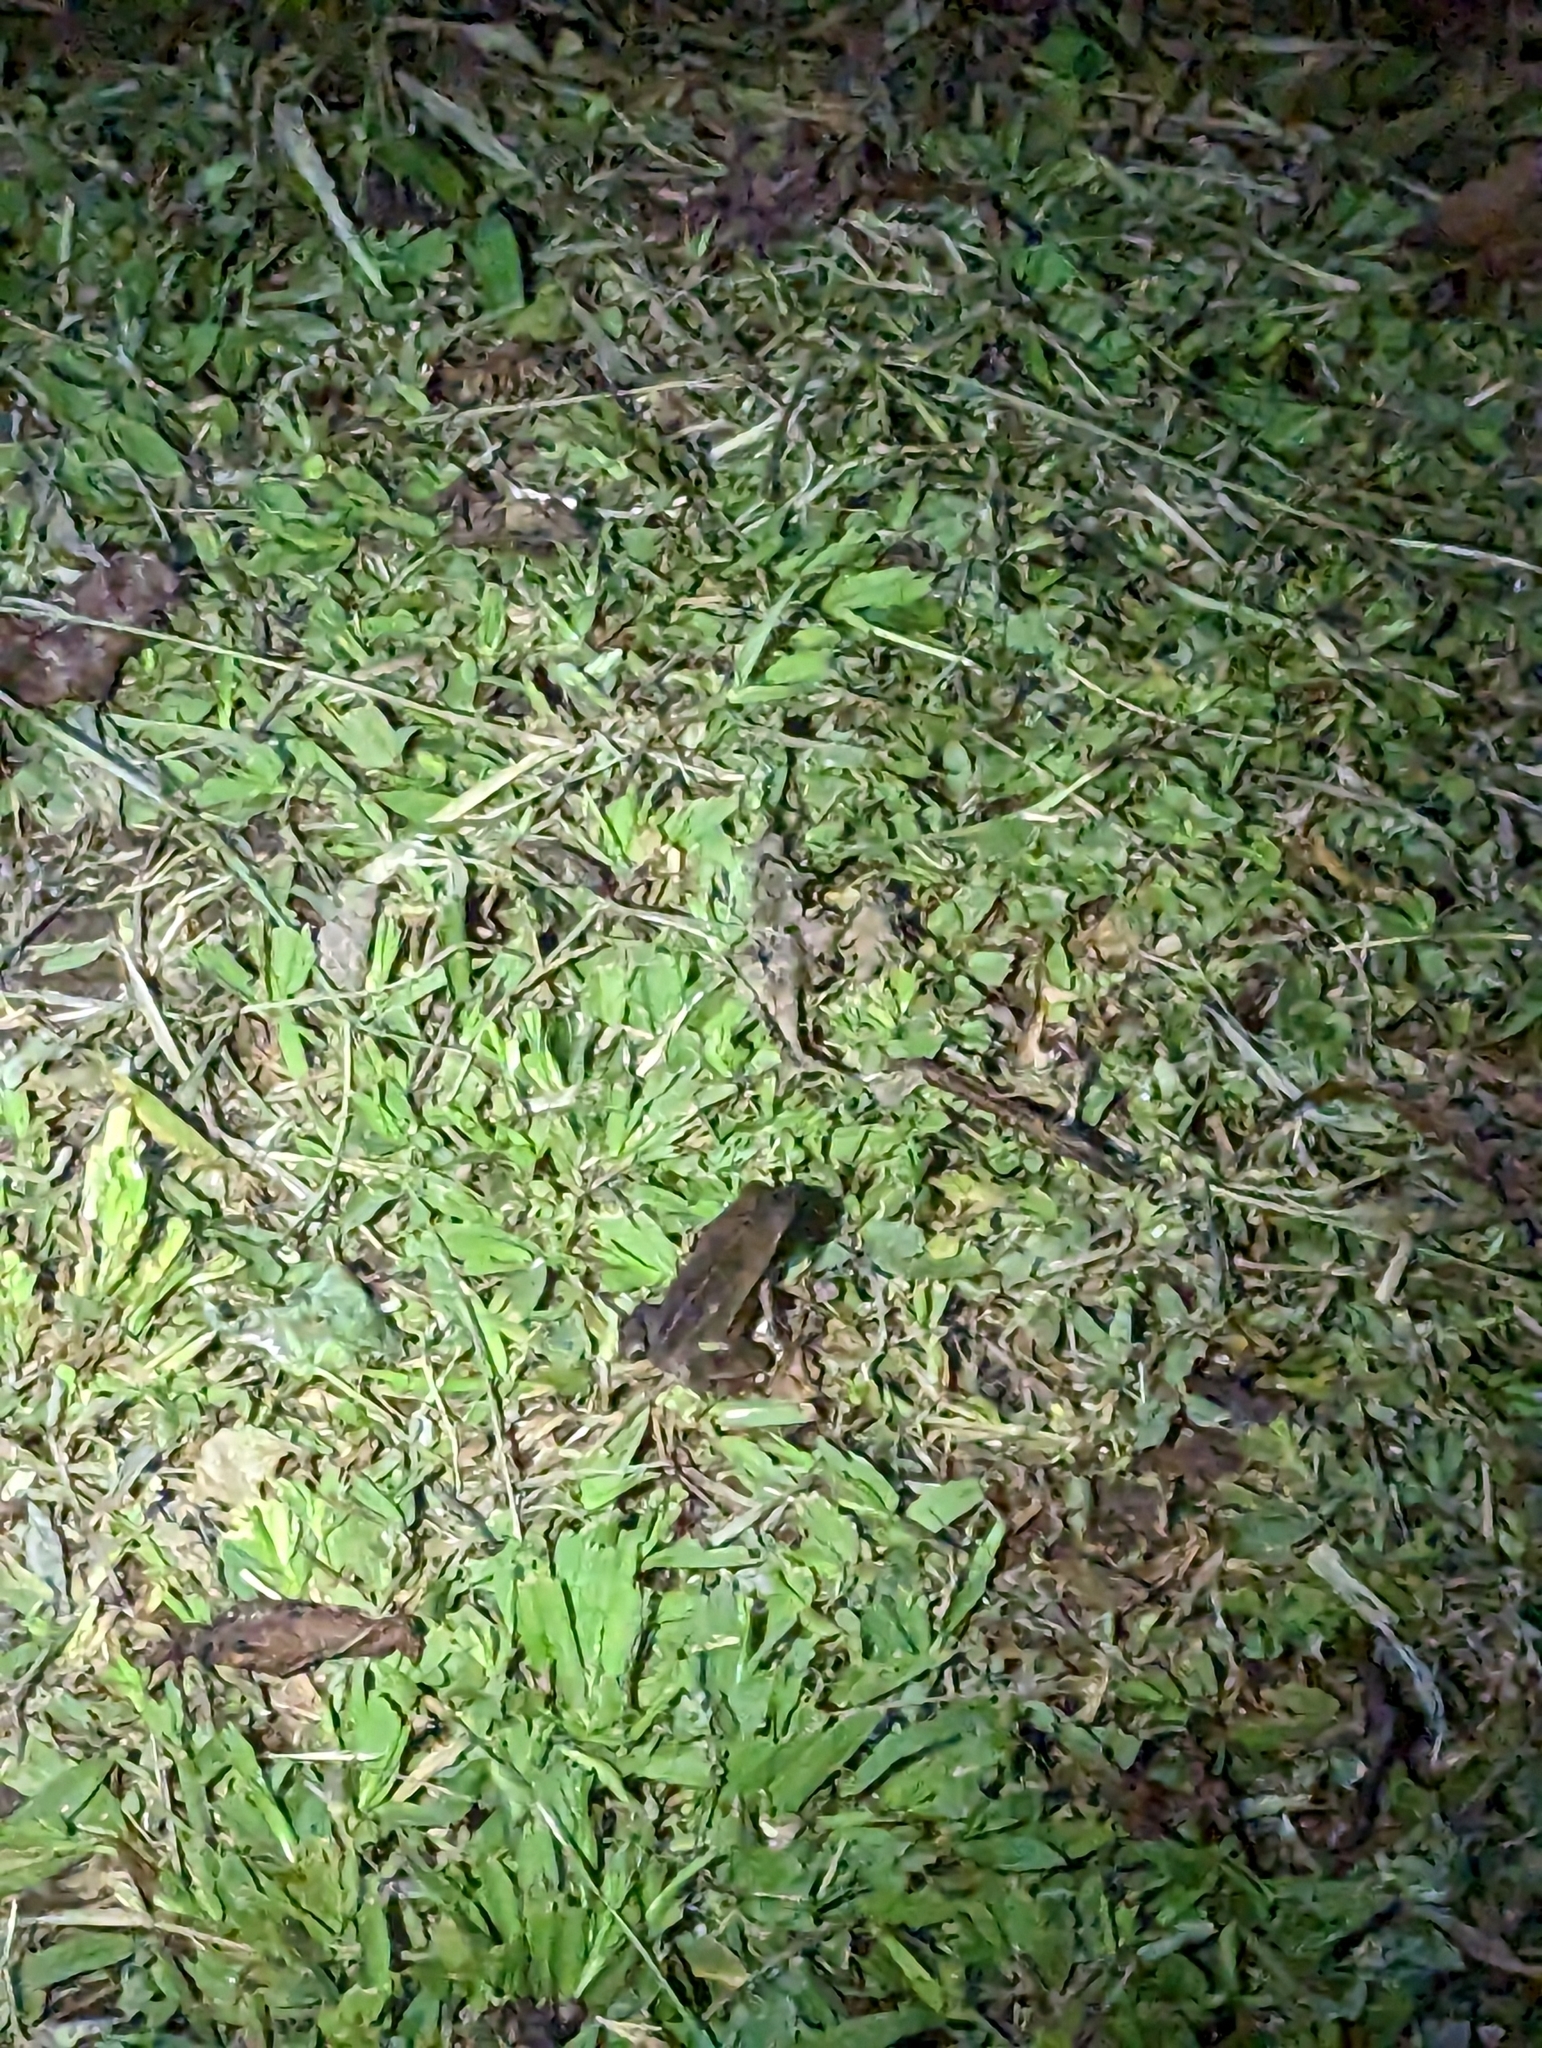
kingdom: Animalia
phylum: Chordata
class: Amphibia
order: Anura
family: Bufonidae
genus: Rhaebo
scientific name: Rhaebo haematiticus
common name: Truando toad
